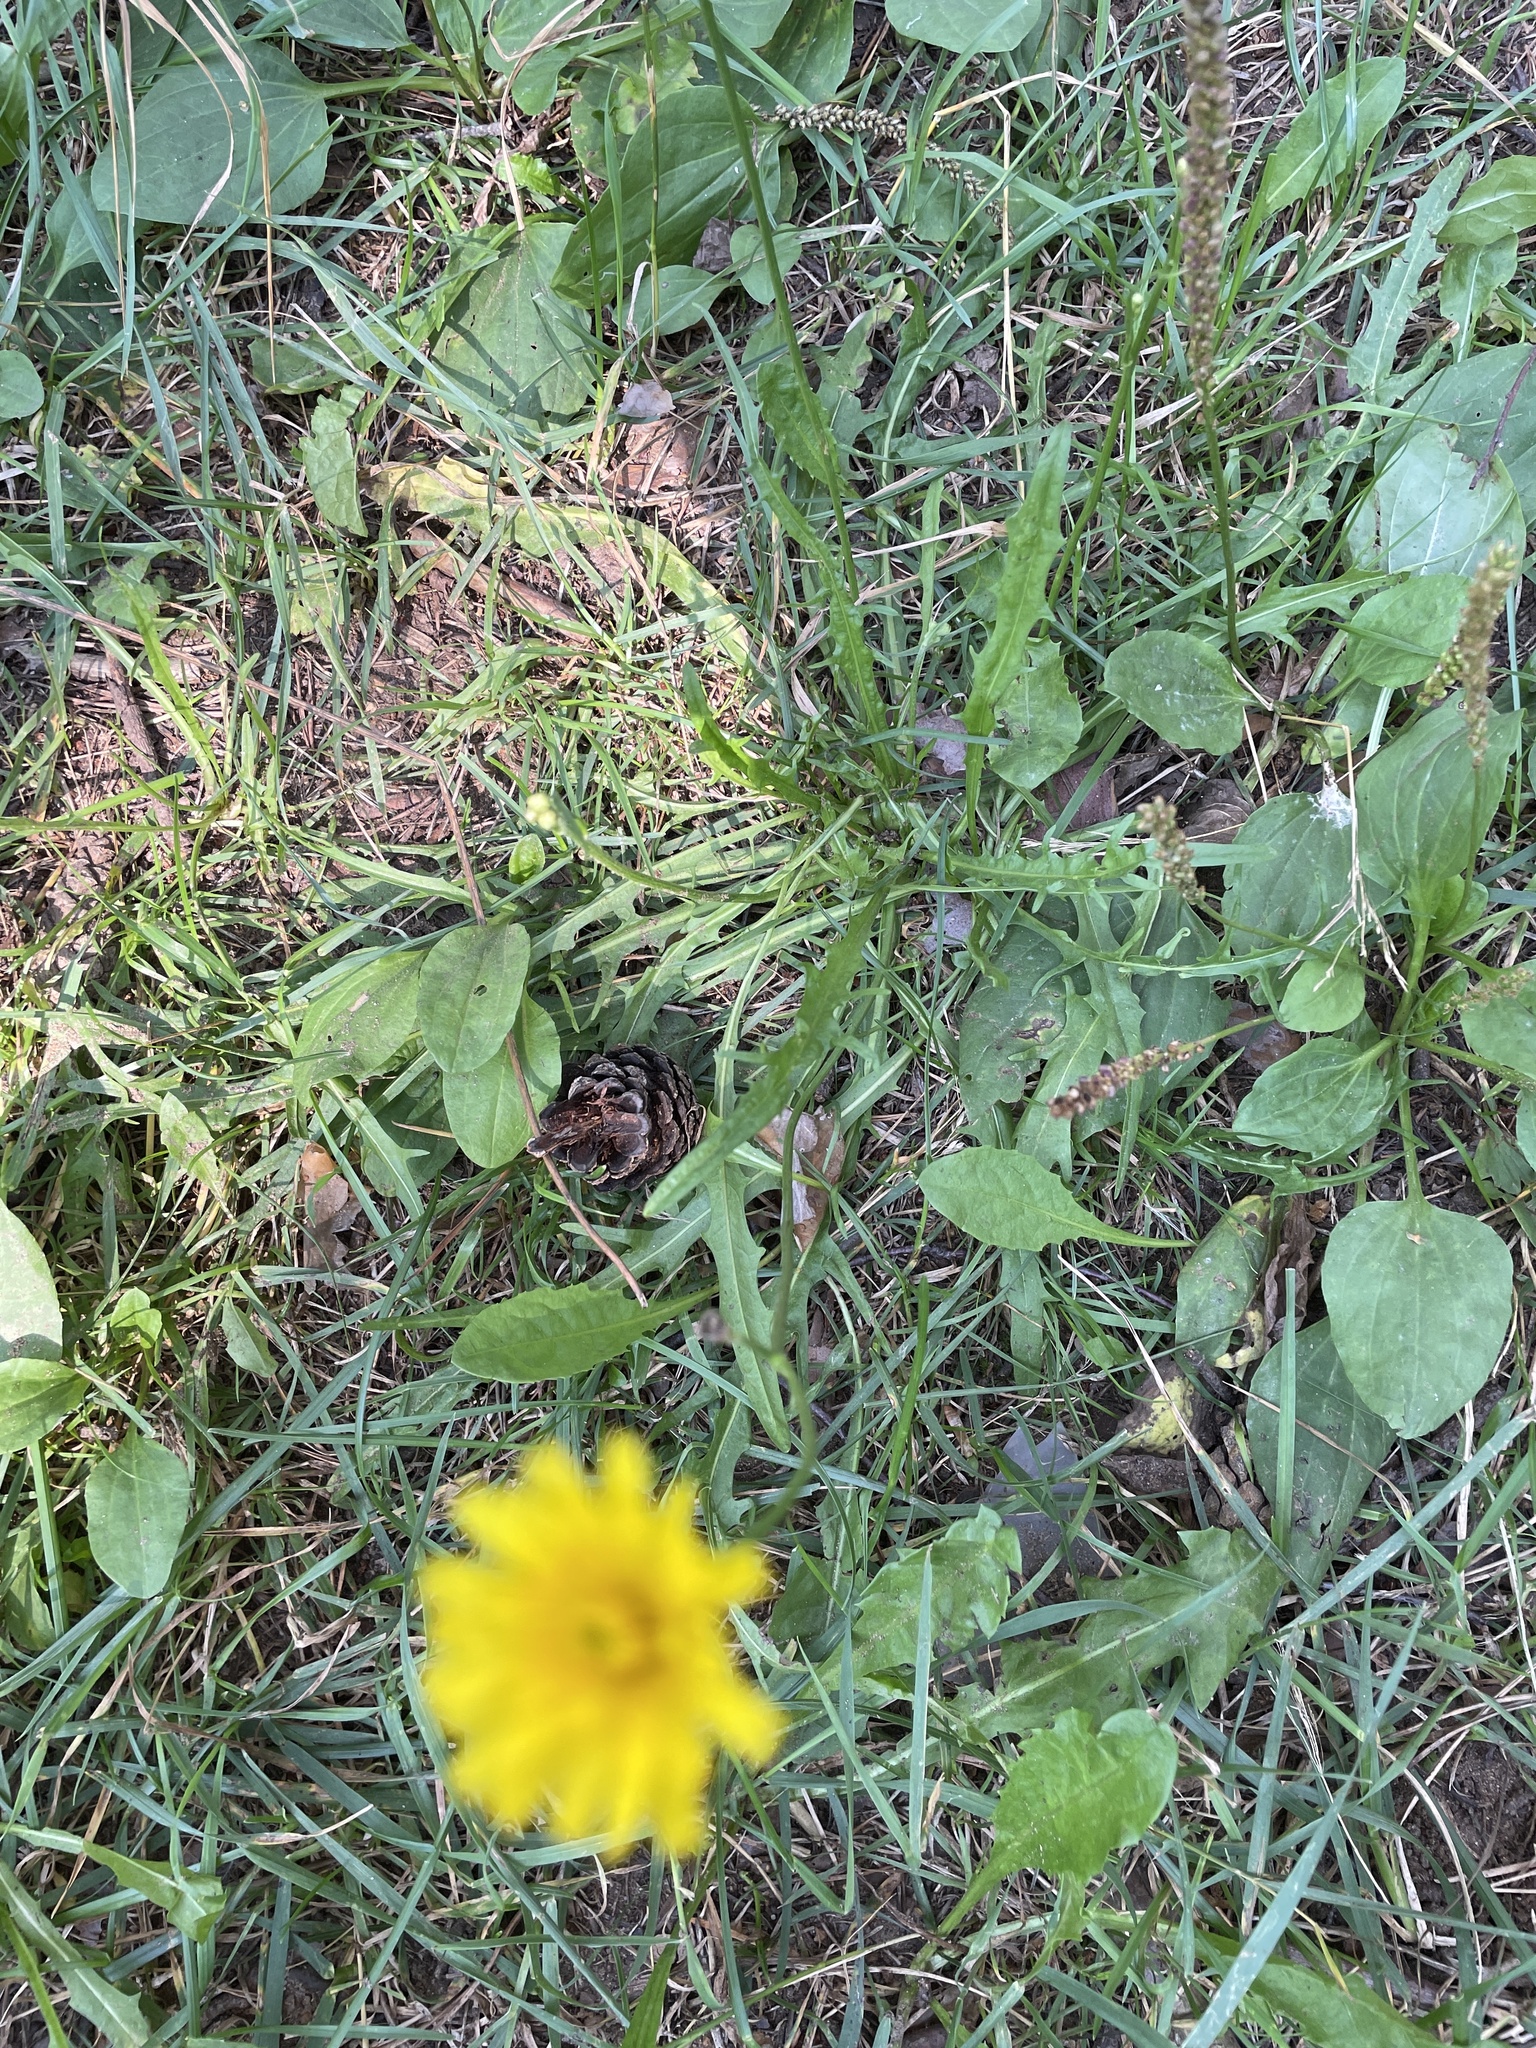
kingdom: Plantae
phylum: Tracheophyta
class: Magnoliopsida
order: Asterales
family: Asteraceae
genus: Scorzoneroides
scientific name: Scorzoneroides autumnalis
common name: Autumn hawkbit
